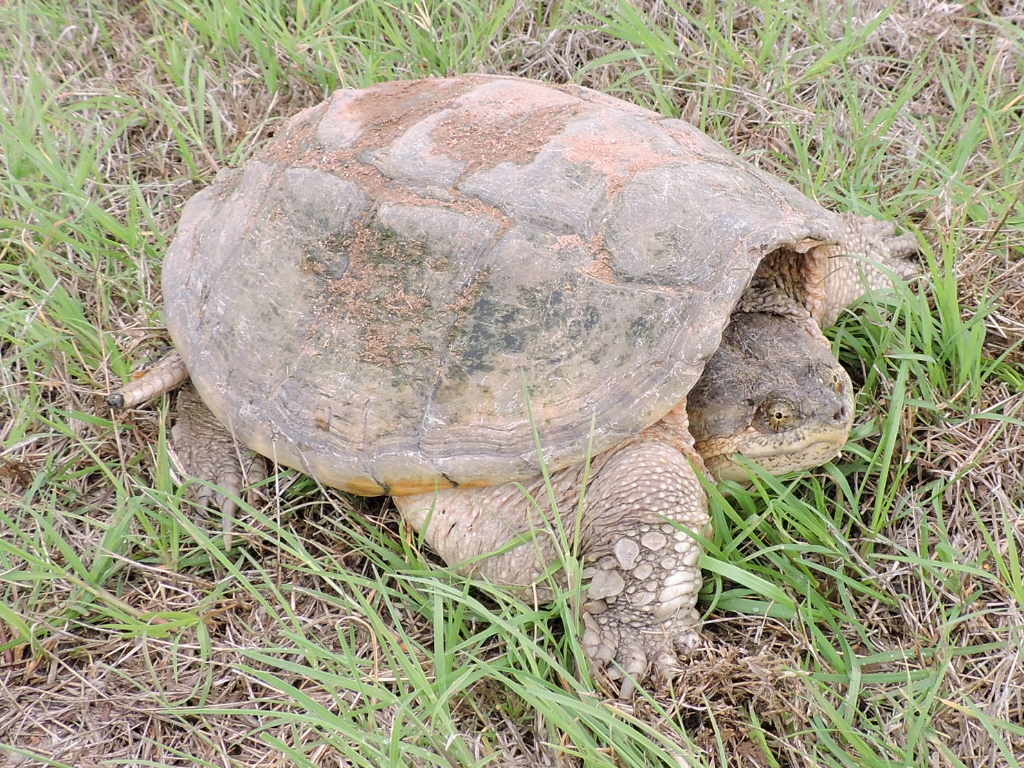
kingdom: Animalia
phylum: Chordata
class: Testudines
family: Chelydridae
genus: Chelydra
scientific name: Chelydra serpentina
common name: Common snapping turtle
